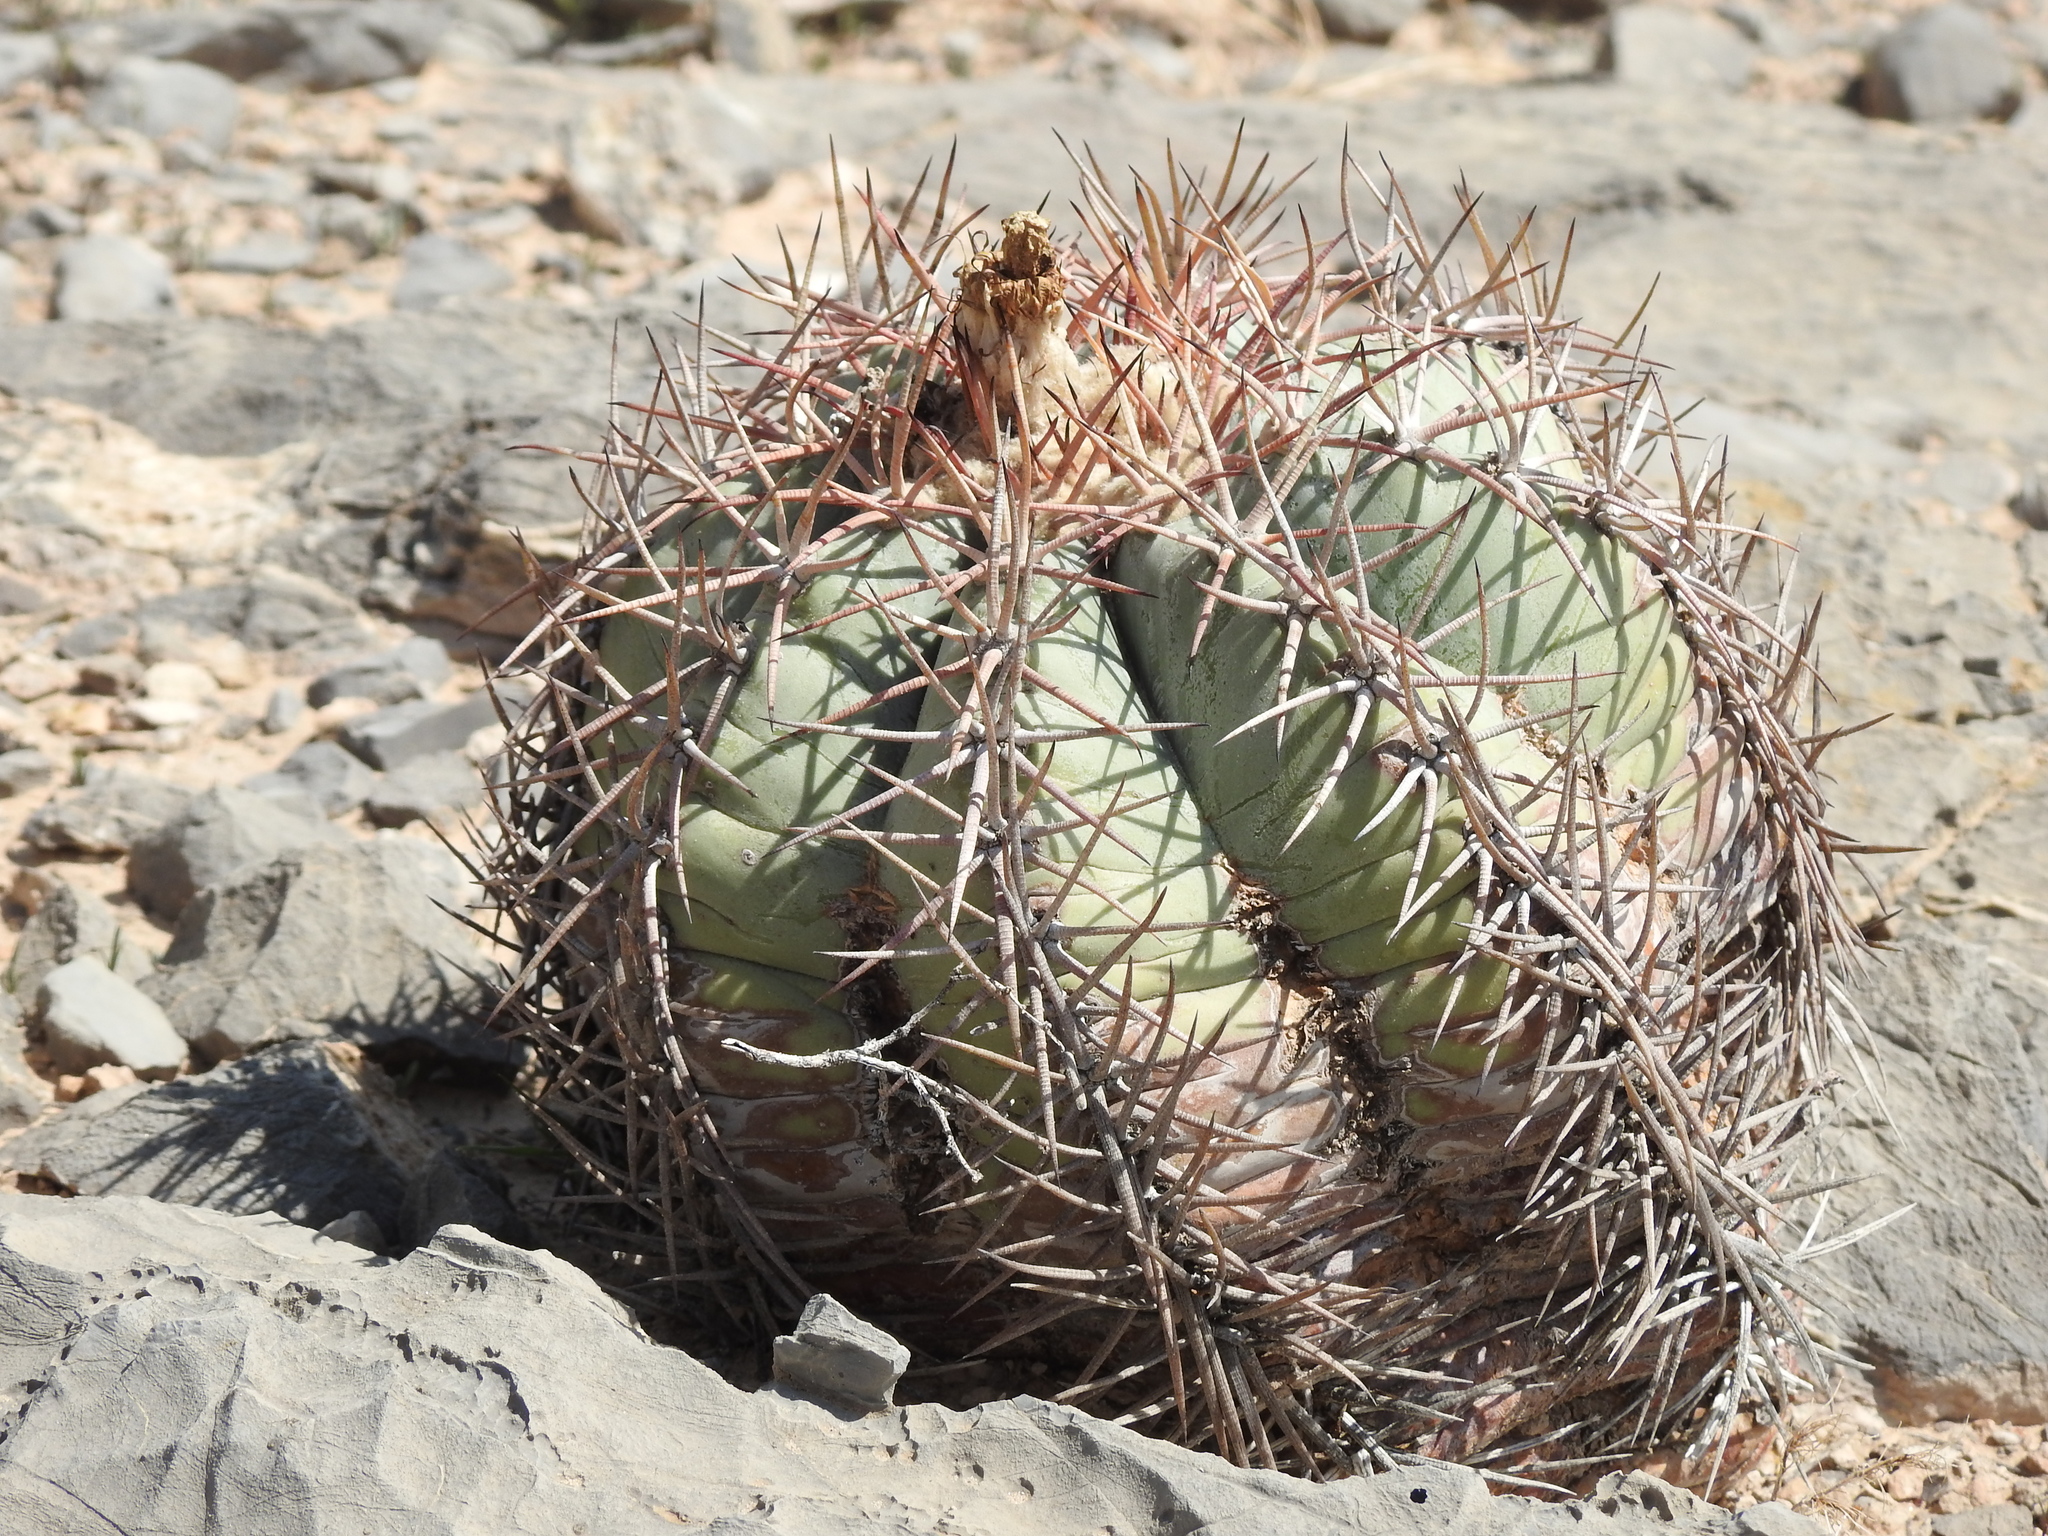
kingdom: Plantae
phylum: Tracheophyta
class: Magnoliopsida
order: Caryophyllales
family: Cactaceae
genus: Echinocactus
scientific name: Echinocactus horizonthalonius
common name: Devilshead
